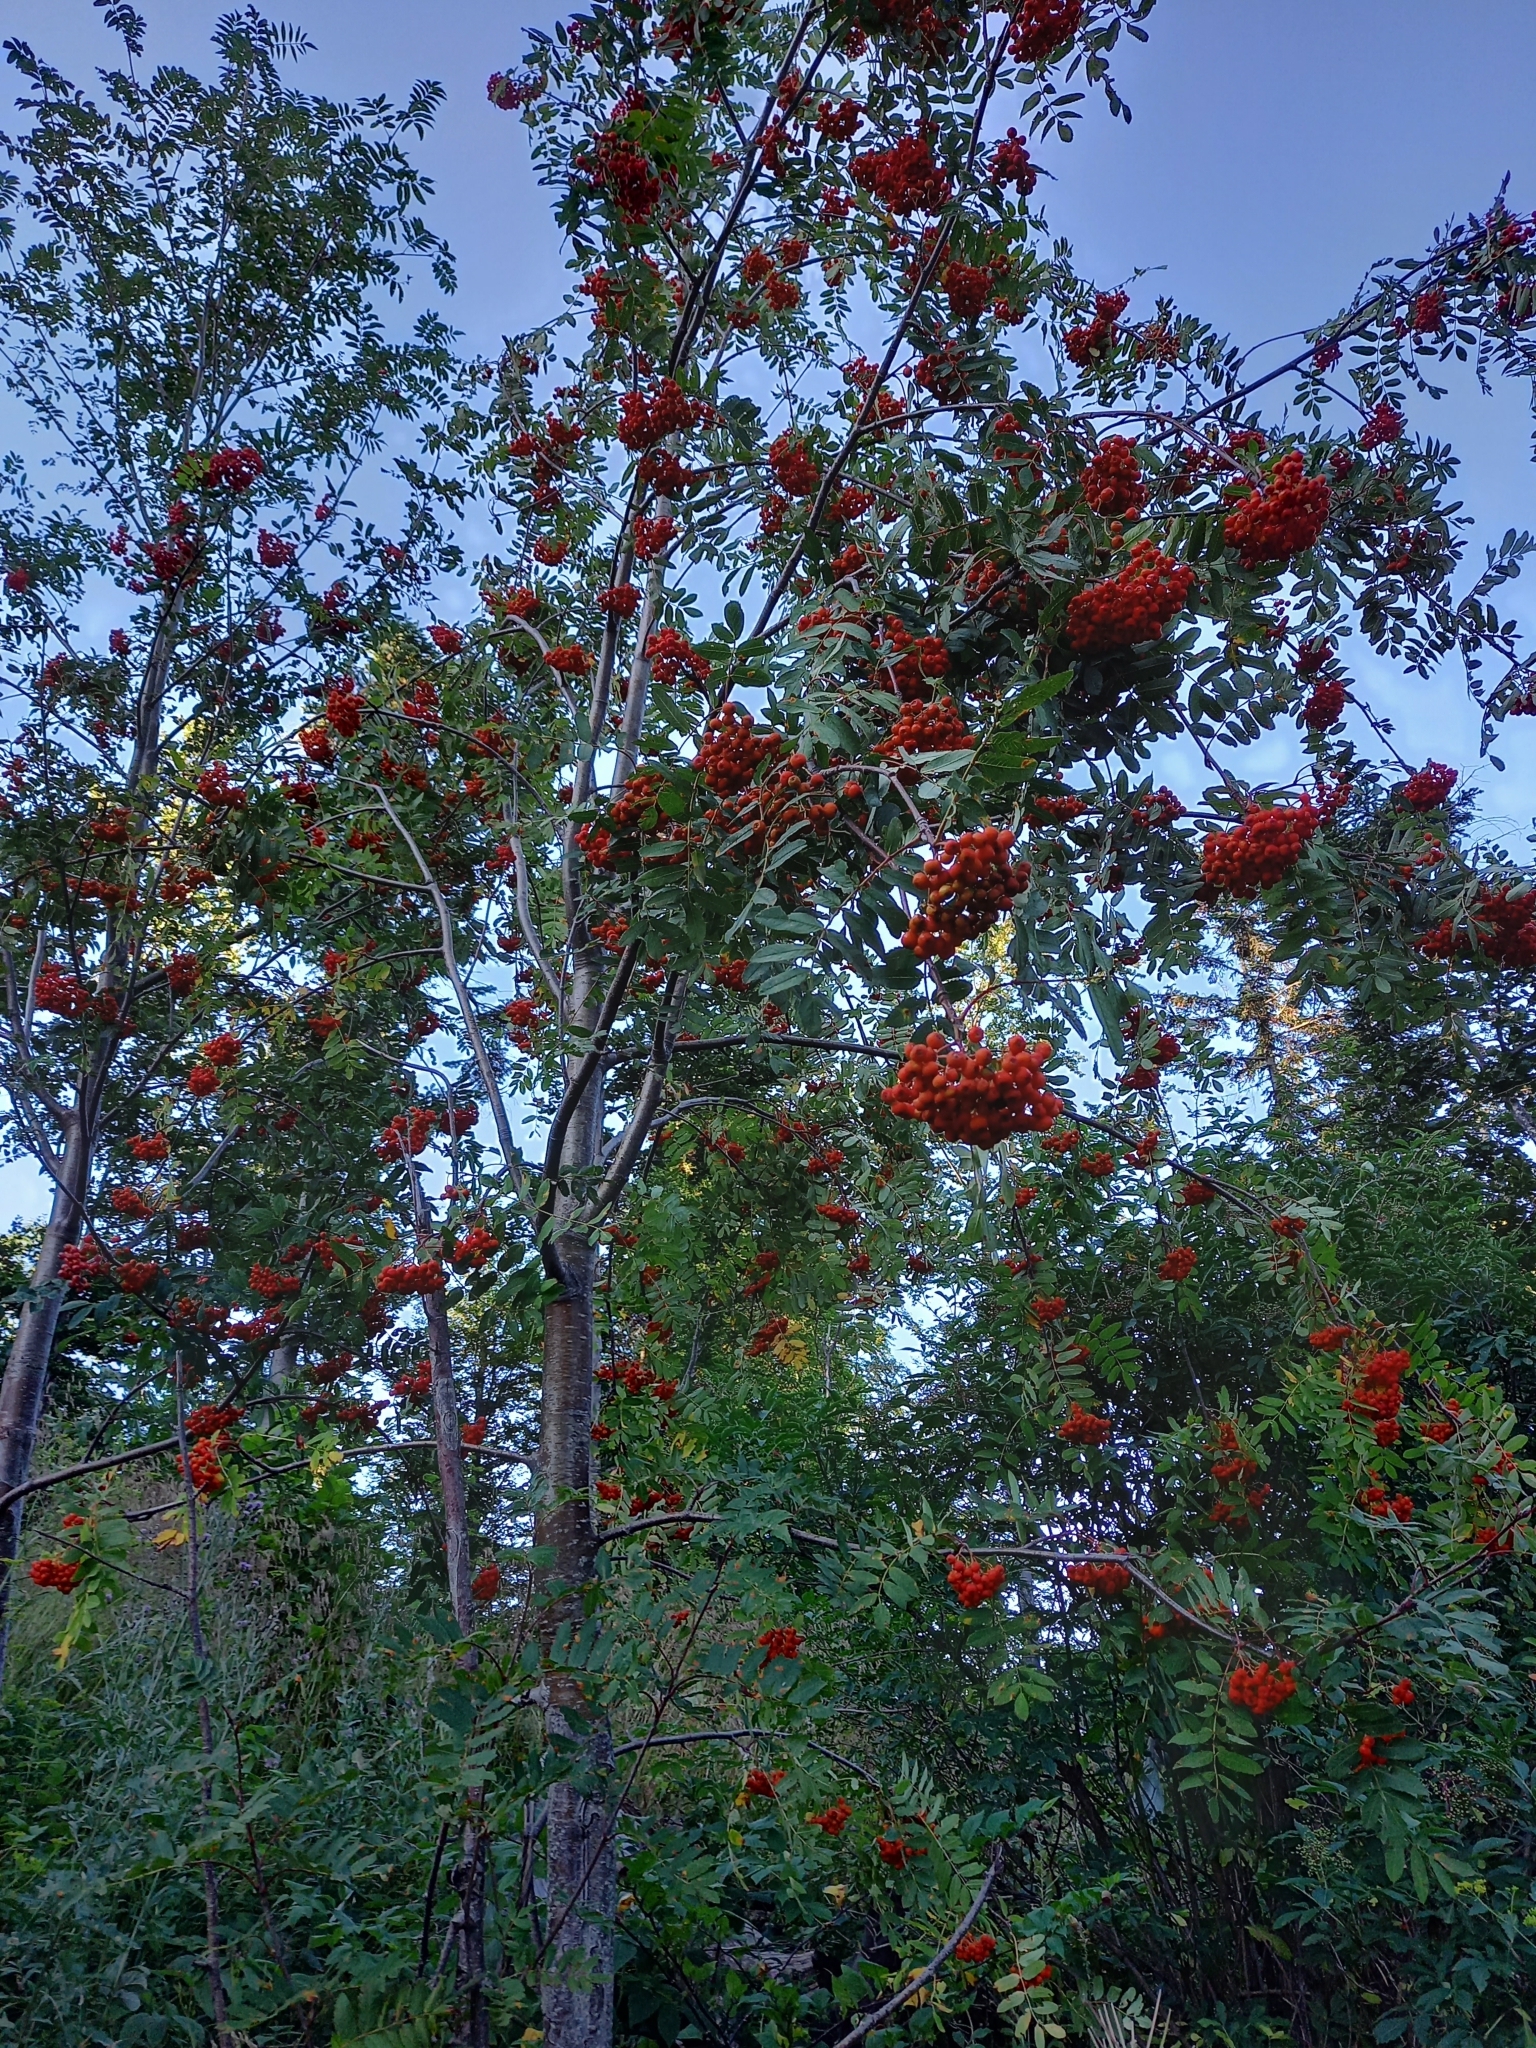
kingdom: Plantae
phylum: Tracheophyta
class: Magnoliopsida
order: Rosales
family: Rosaceae
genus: Sorbus
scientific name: Sorbus aucuparia
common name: Rowan
